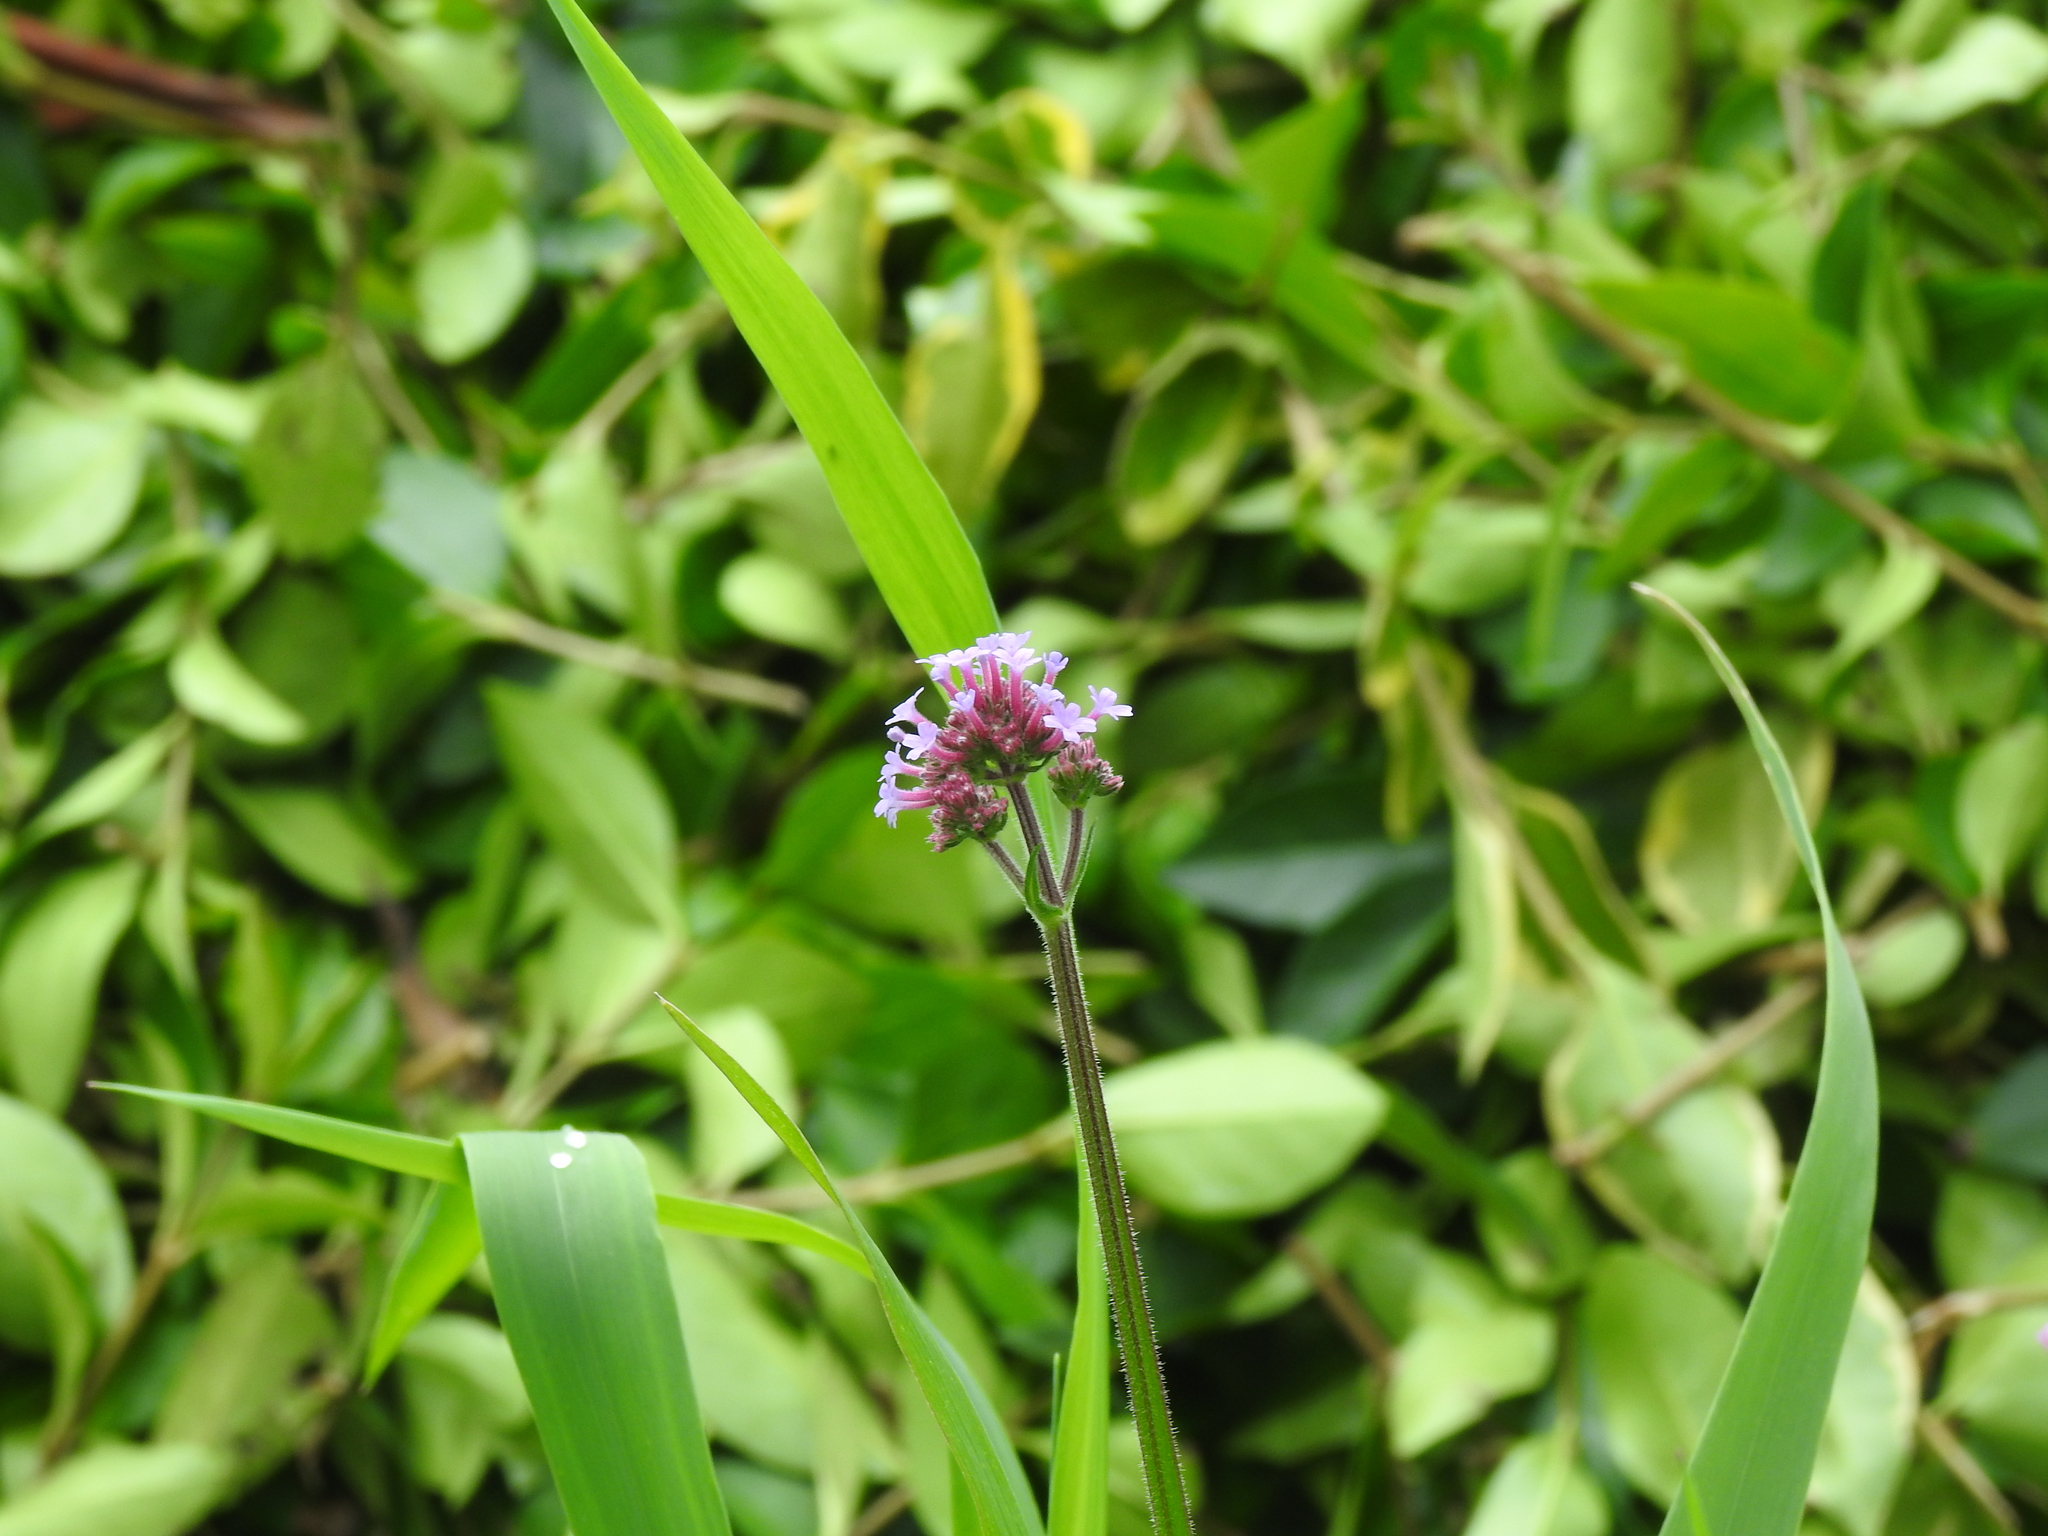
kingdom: Plantae
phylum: Tracheophyta
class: Magnoliopsida
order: Lamiales
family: Verbenaceae
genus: Verbena
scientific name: Verbena bonariensis
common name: Purpletop vervain
